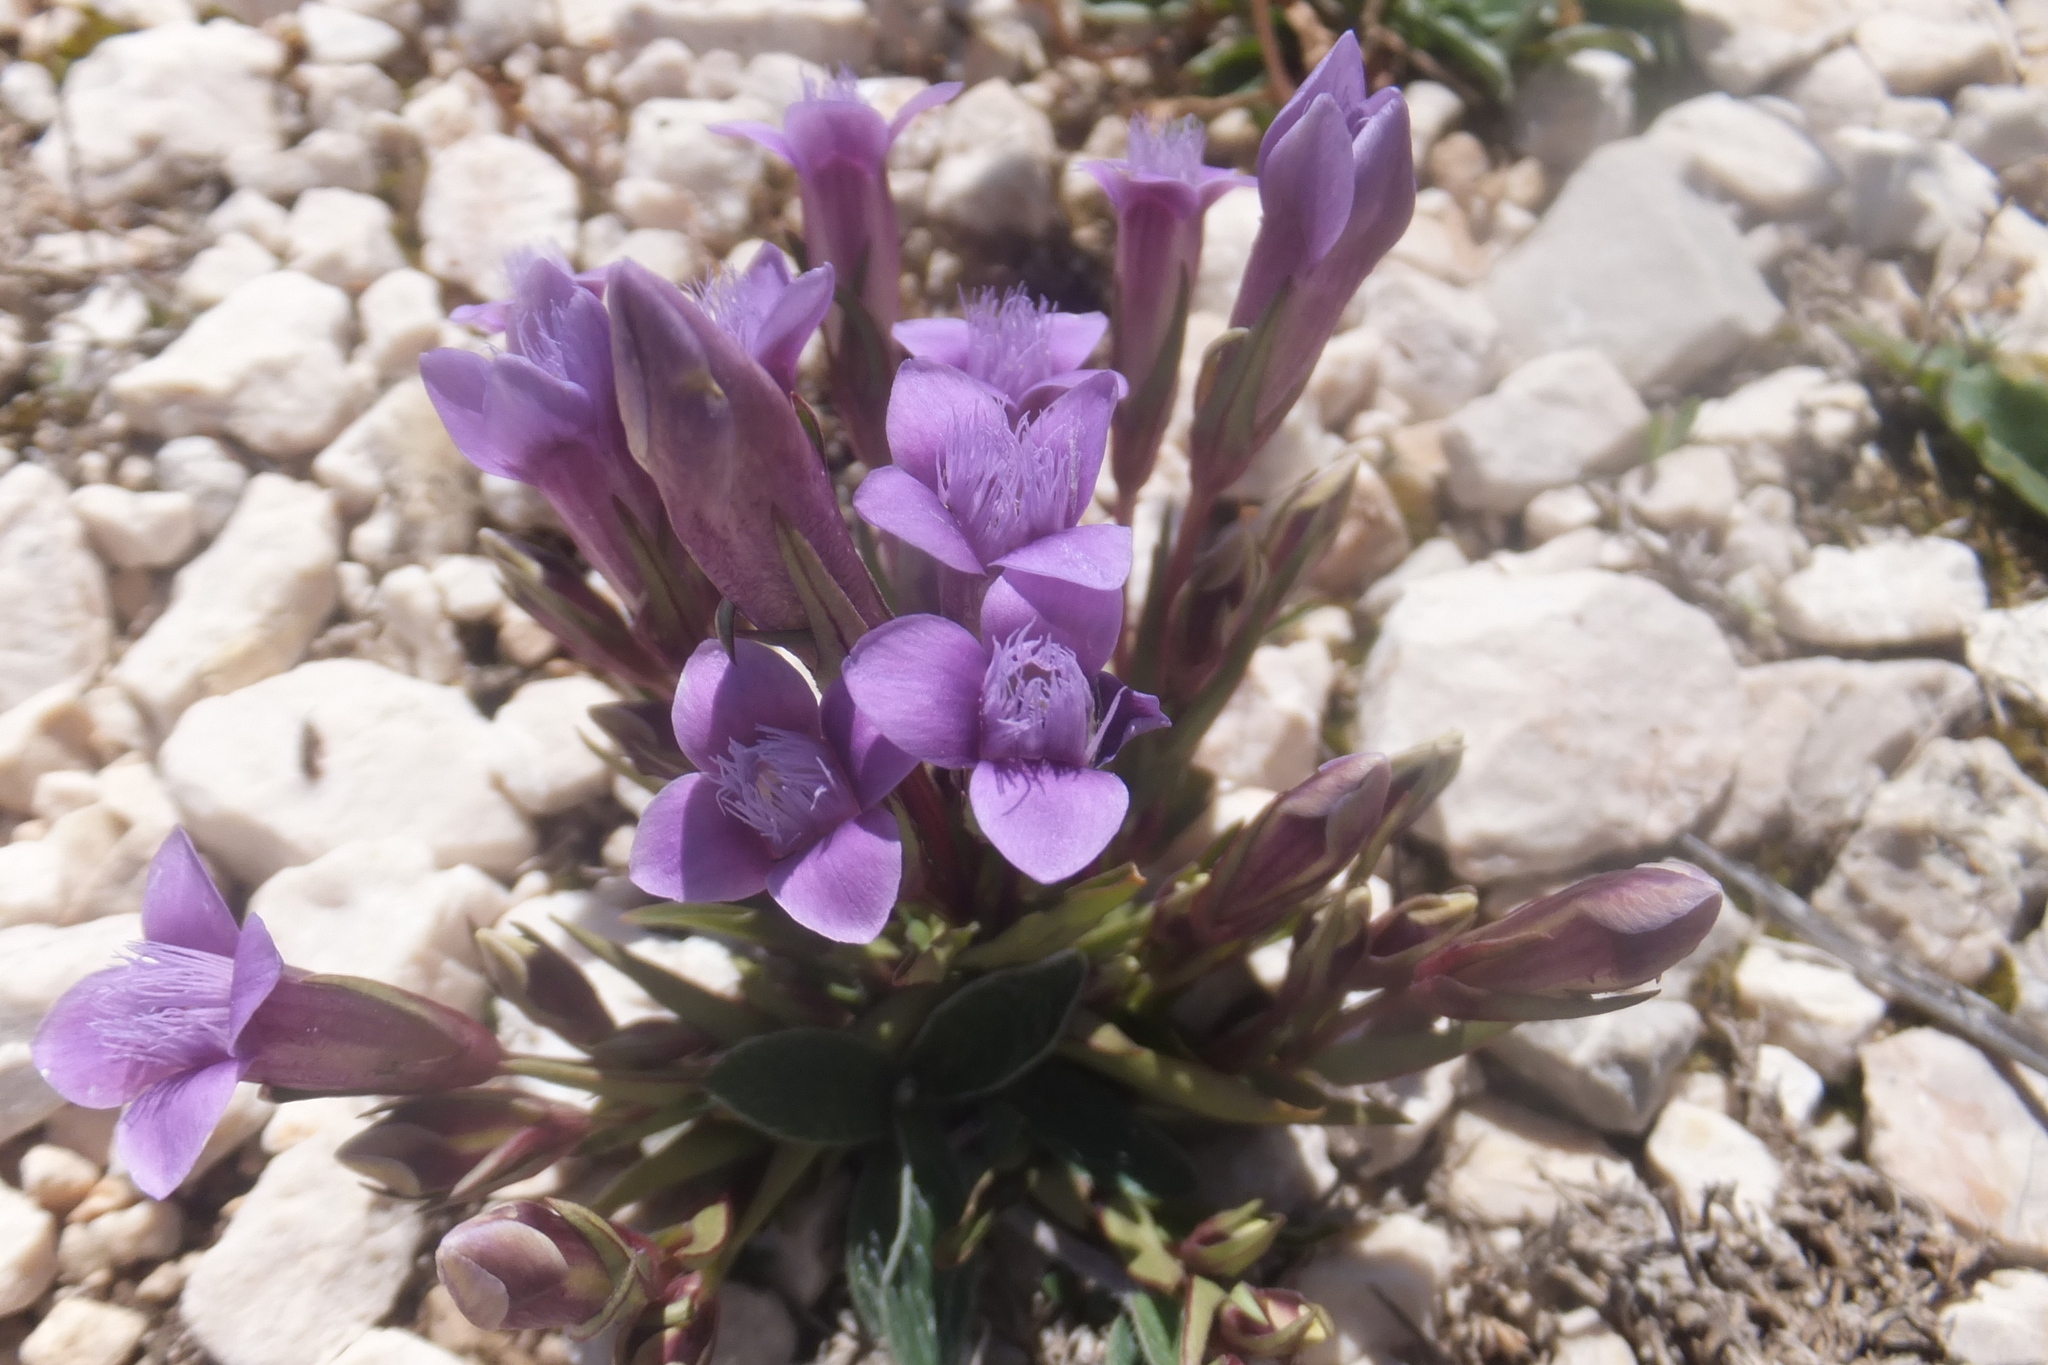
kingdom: Plantae
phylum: Tracheophyta
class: Magnoliopsida
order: Gentianales
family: Gentianaceae
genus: Gentianella
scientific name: Gentianella columnae
